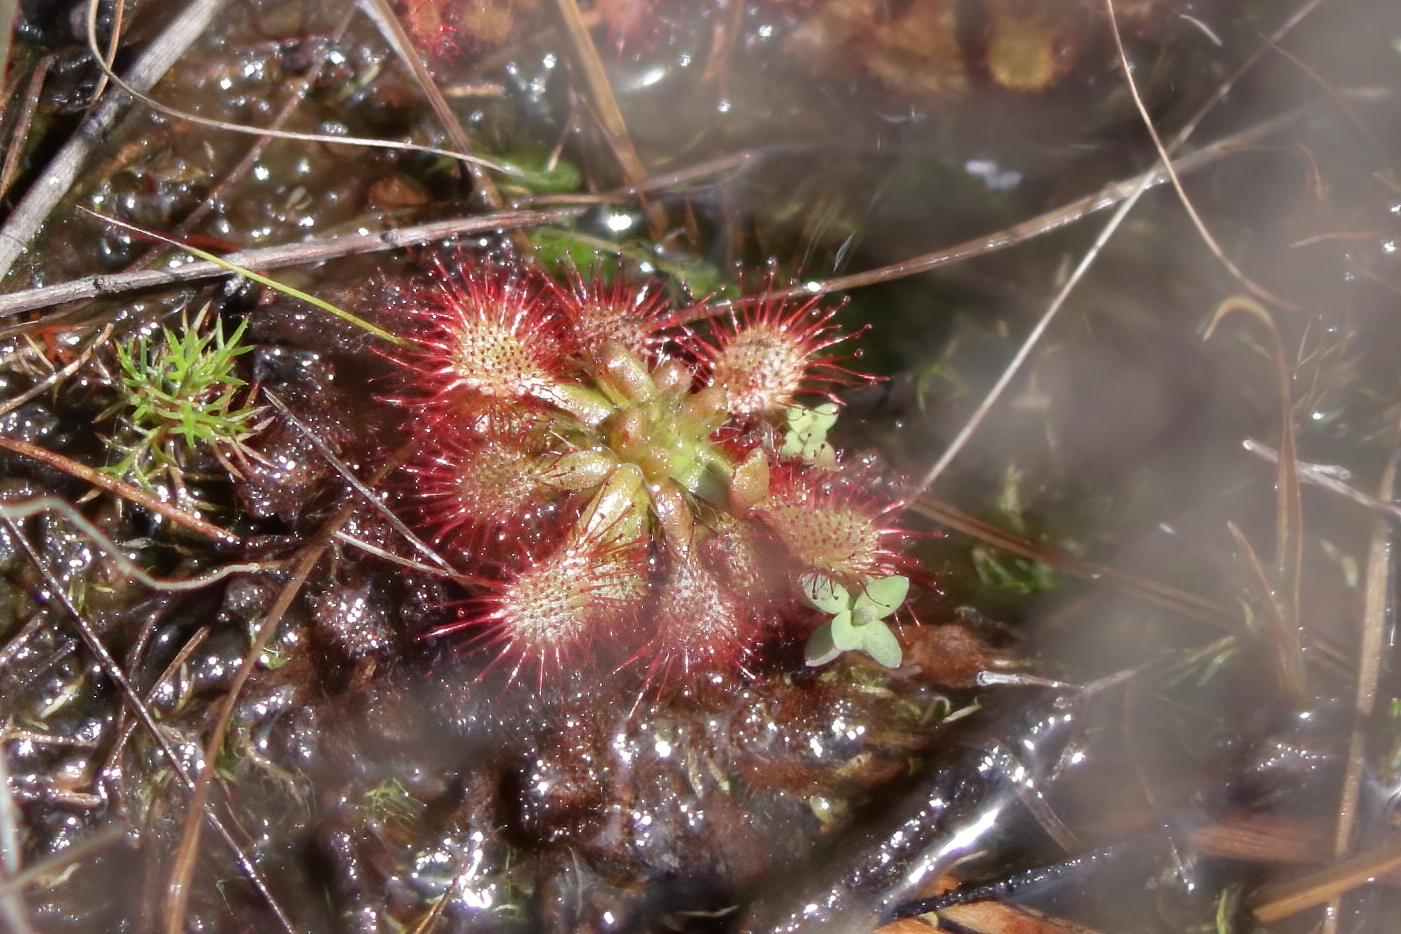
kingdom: Plantae
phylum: Tracheophyta
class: Magnoliopsida
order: Caryophyllales
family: Droseraceae
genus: Drosera
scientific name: Drosera capillaris
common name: Pink sundew
